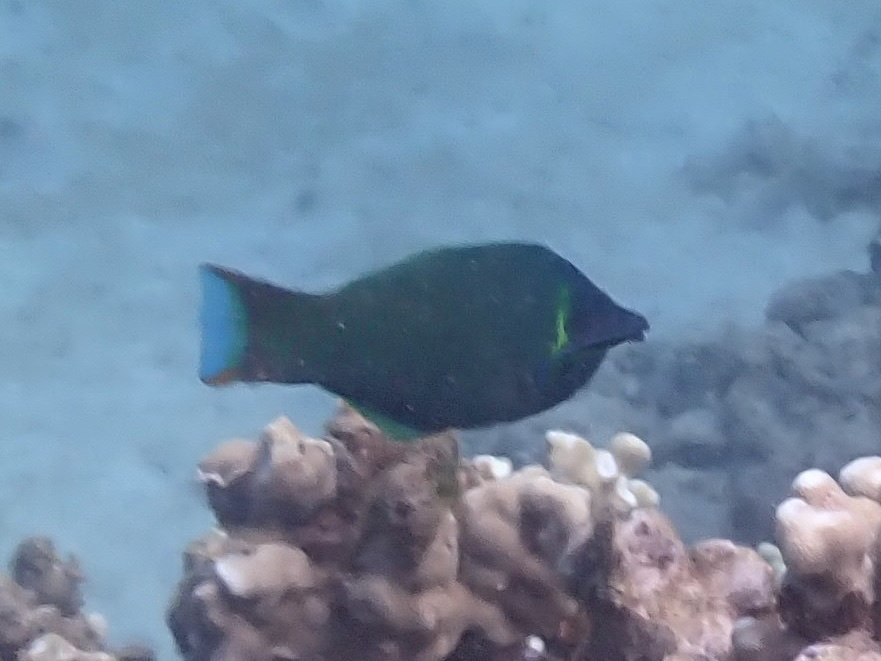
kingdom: Animalia
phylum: Chordata
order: Perciformes
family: Labridae
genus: Gomphosus
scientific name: Gomphosus varius
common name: Bird wrasse
